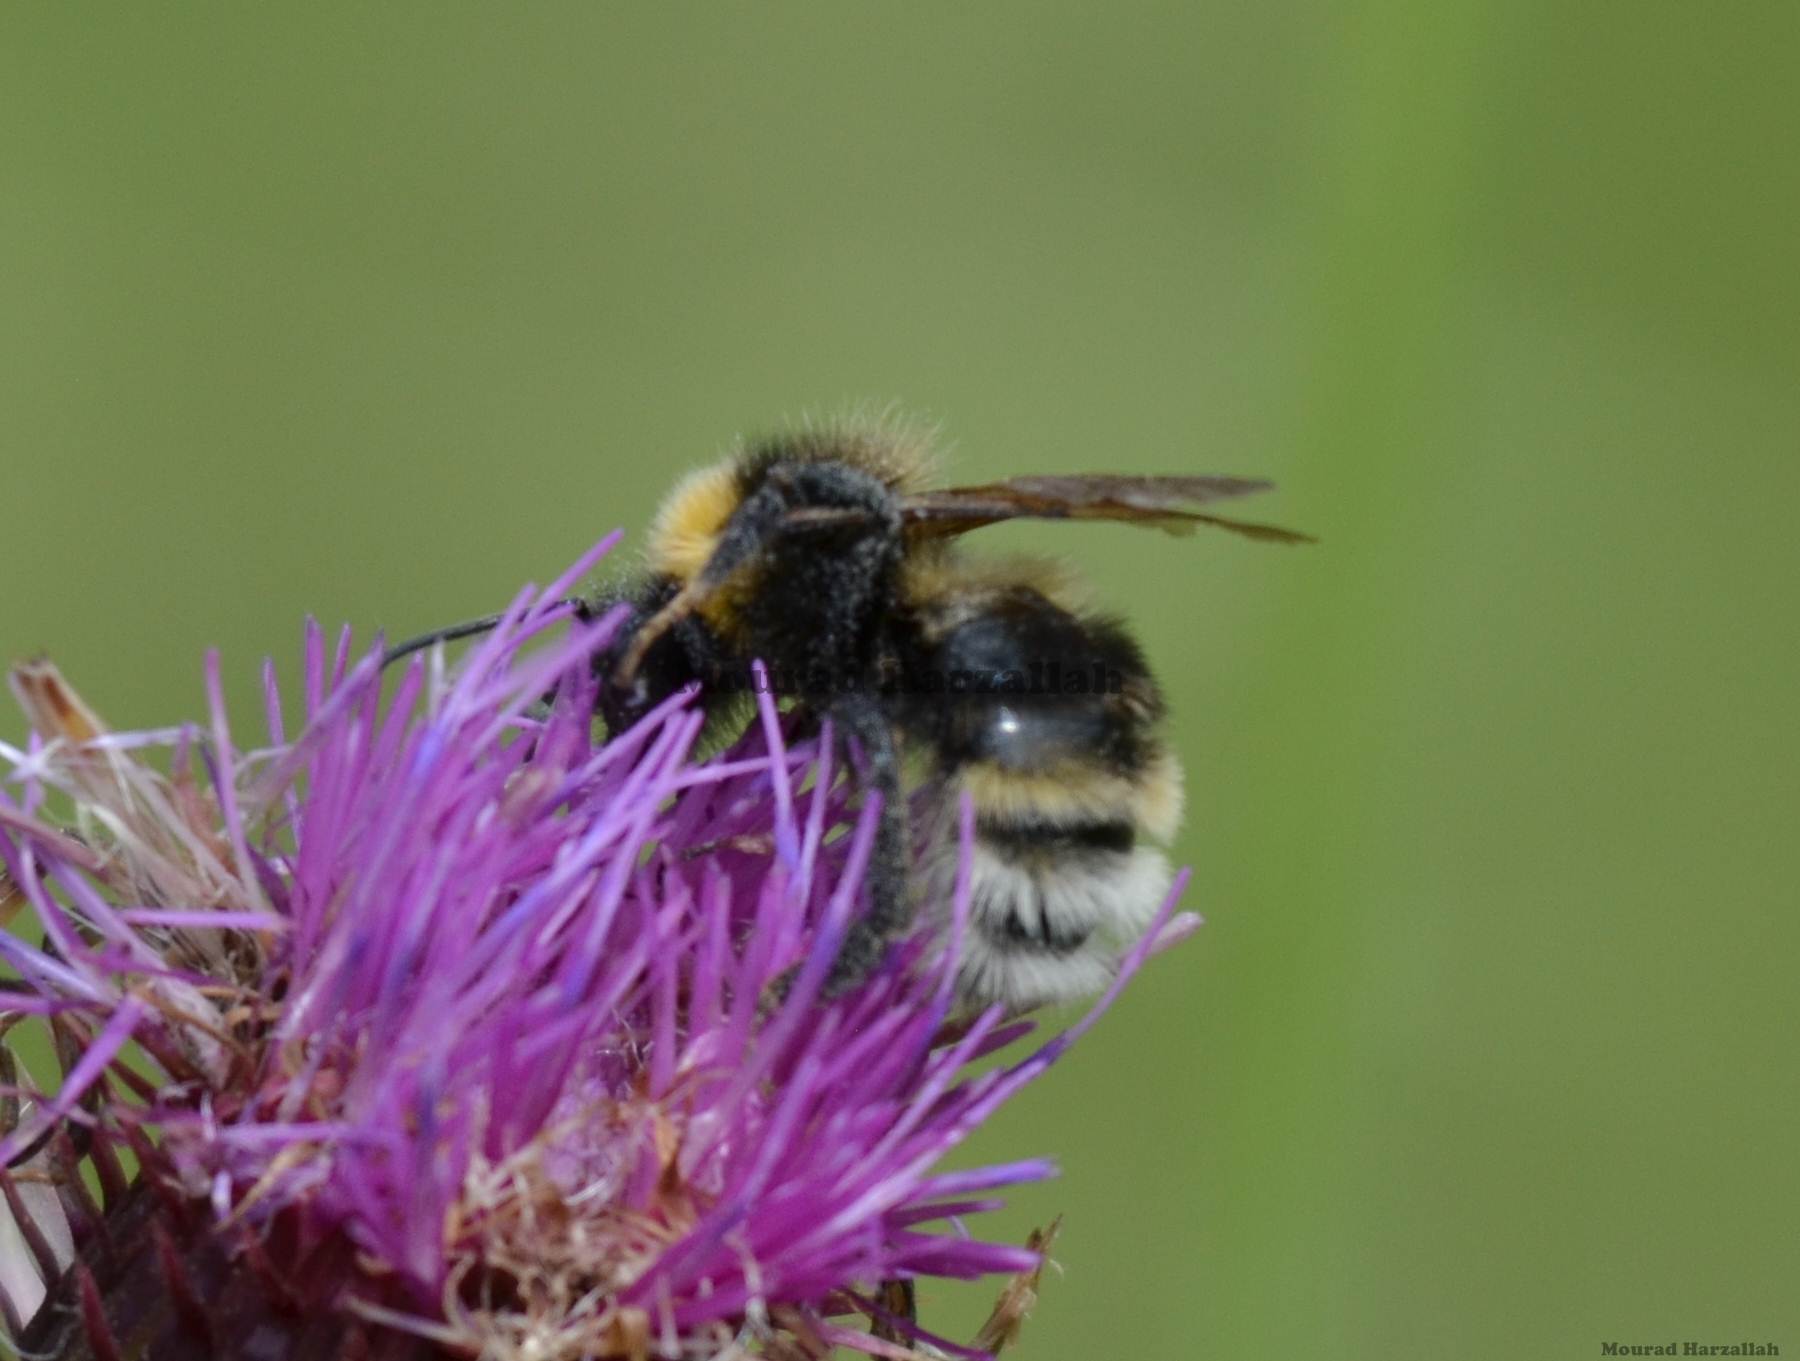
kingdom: Animalia
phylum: Arthropoda
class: Insecta
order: Hymenoptera
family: Apidae
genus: Bombus
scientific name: Bombus vestalis
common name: Vestal cuckoo bee
